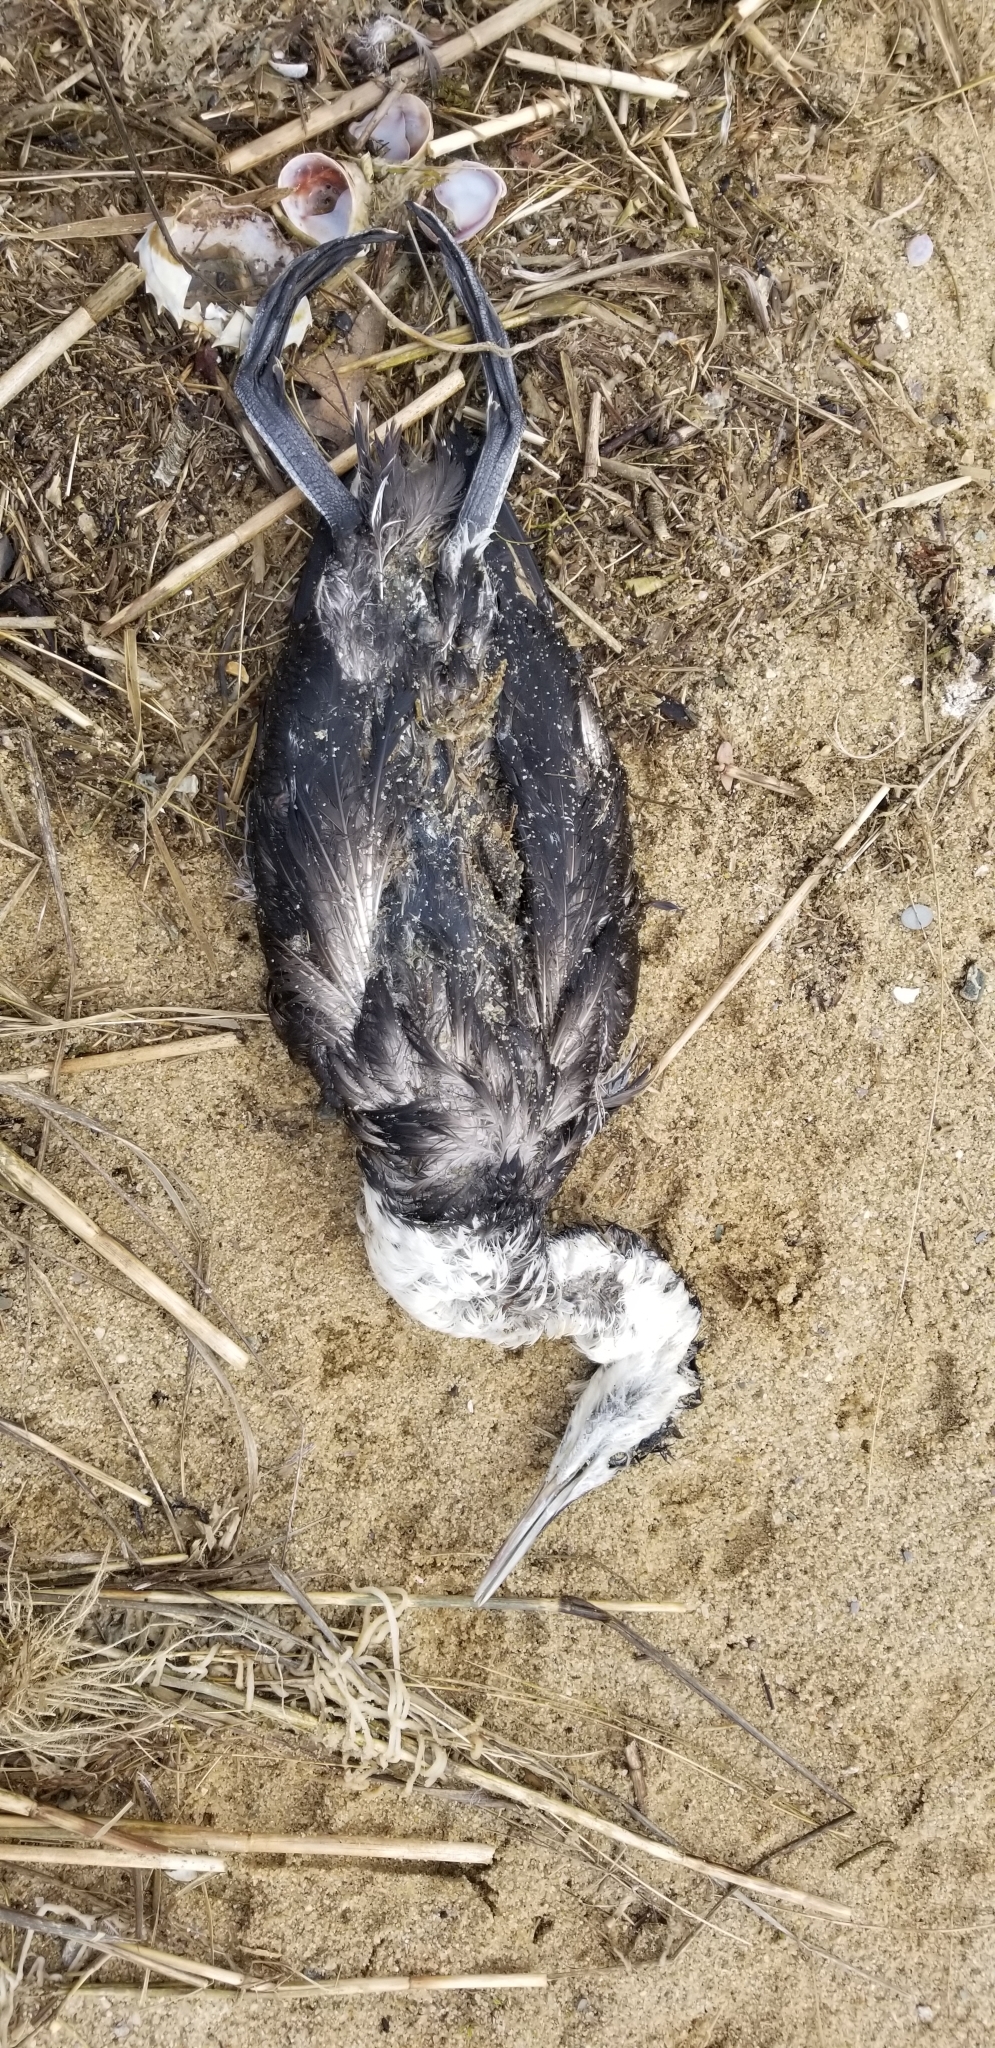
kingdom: Animalia
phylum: Chordata
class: Aves
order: Gaviiformes
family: Gaviidae
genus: Gavia
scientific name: Gavia stellata
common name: Red-throated loon
